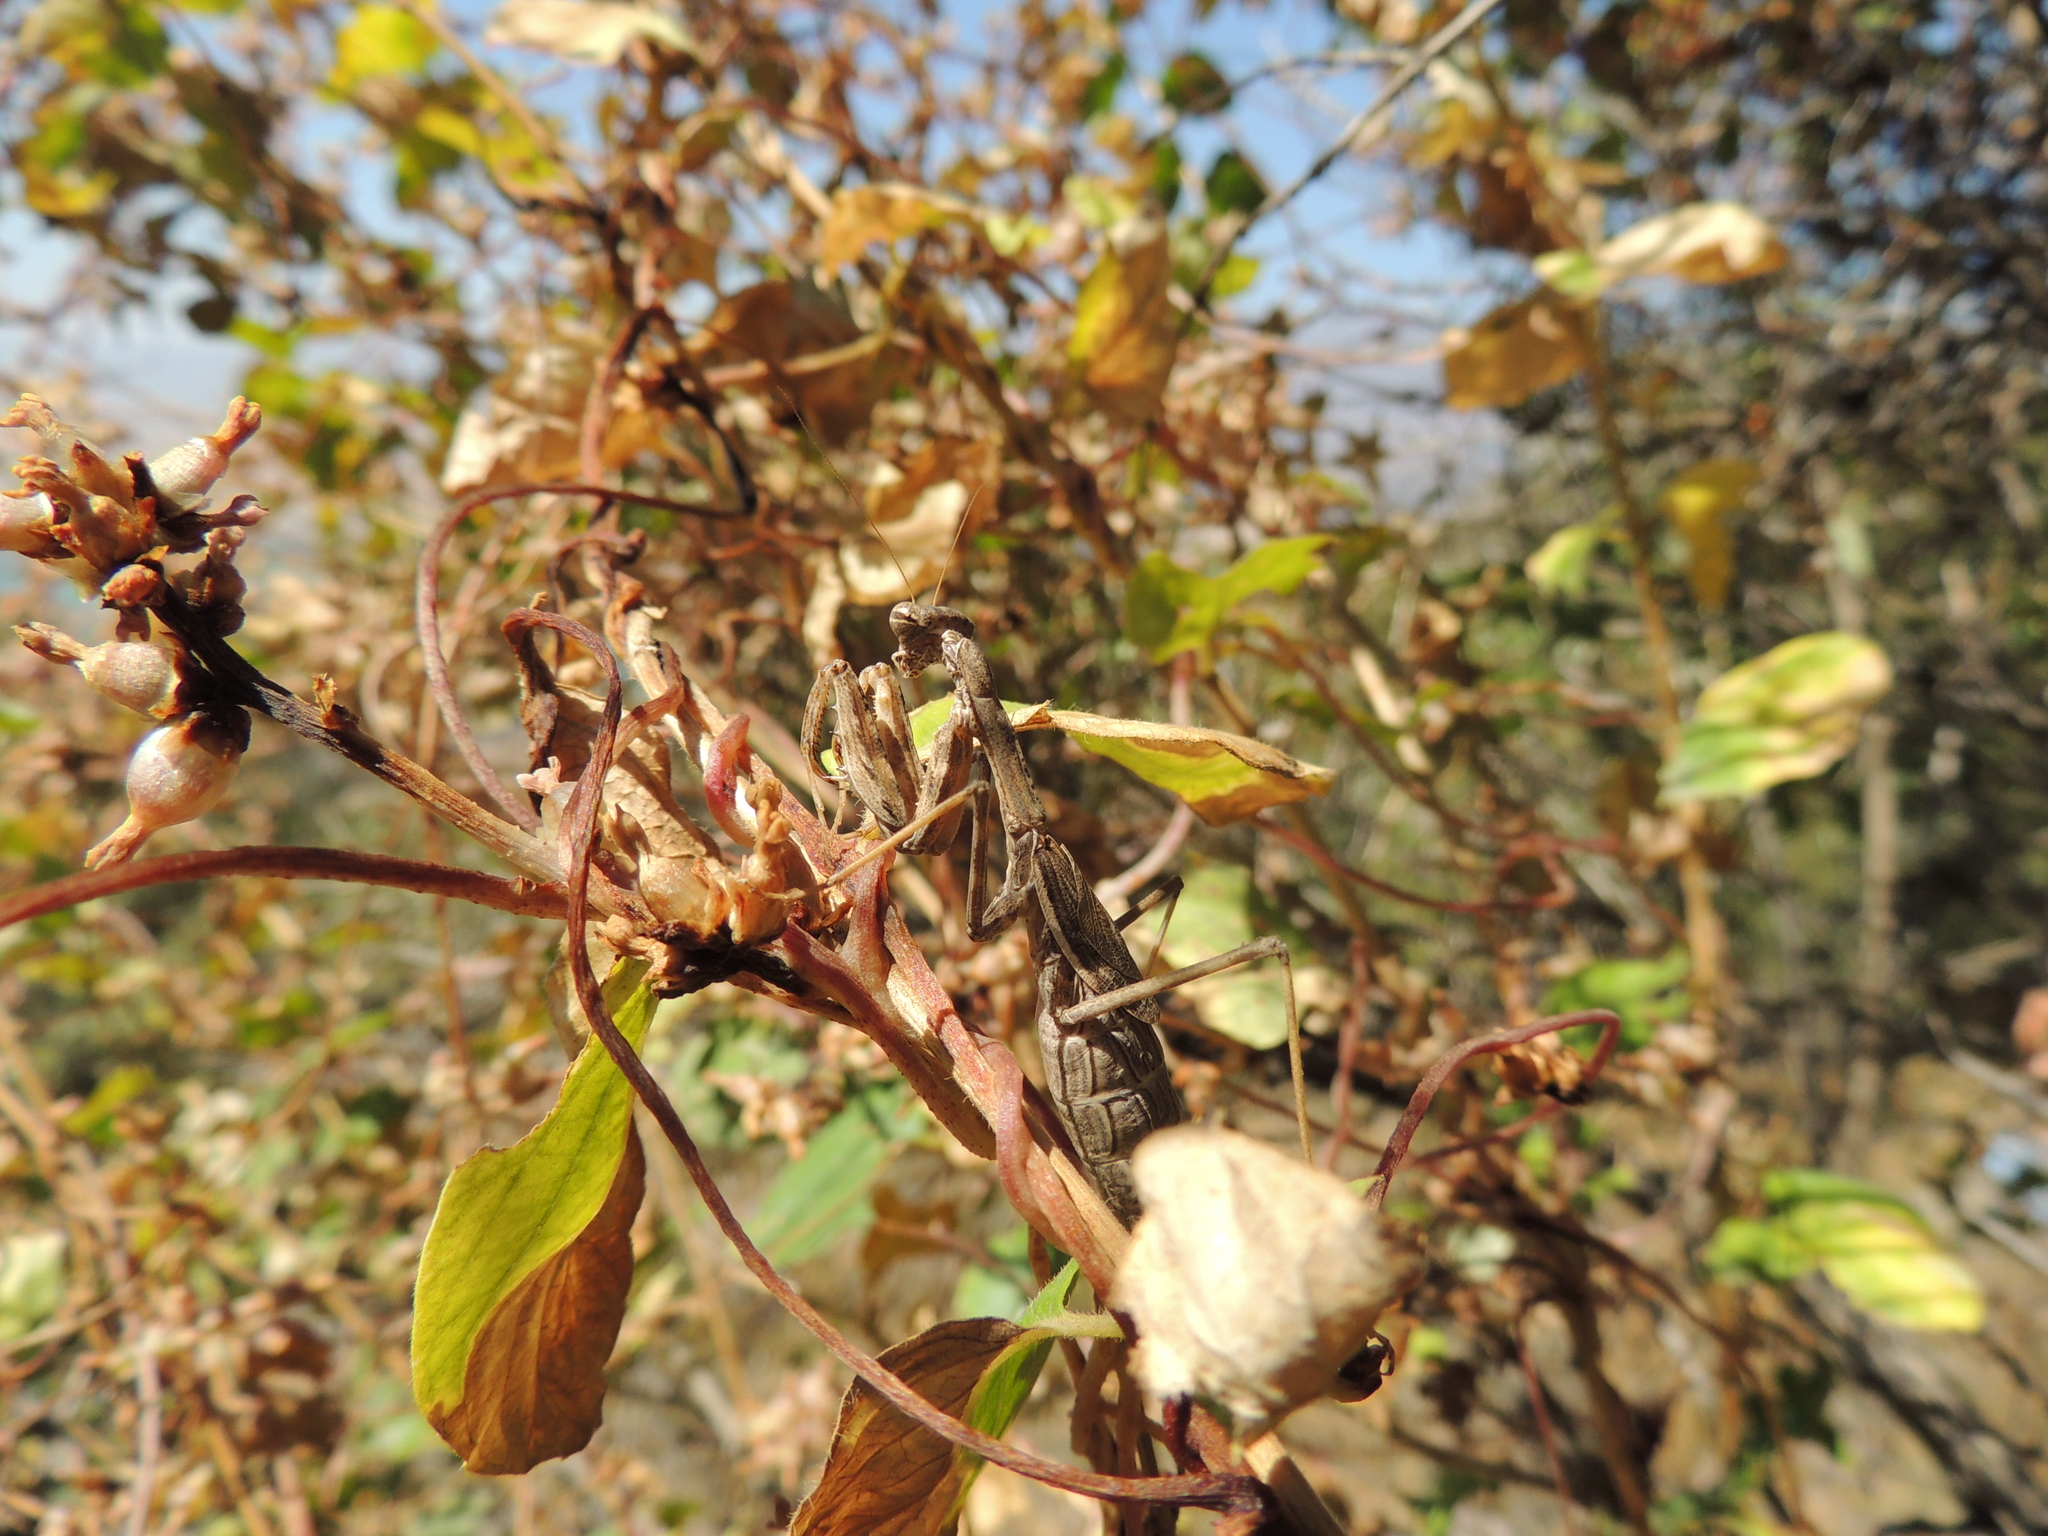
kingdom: Animalia
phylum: Arthropoda
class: Insecta
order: Mantodea
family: Rivetinidae
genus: Bolivaria
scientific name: Bolivaria brachyptera
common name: Bolivar's short winged mantis
